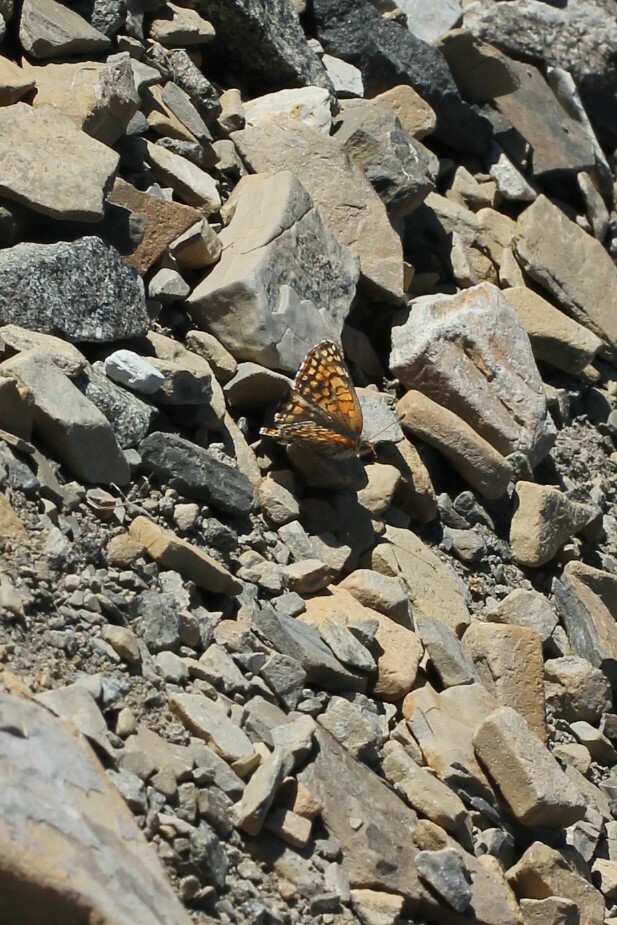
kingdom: Animalia
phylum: Arthropoda
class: Insecta
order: Lepidoptera
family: Nymphalidae
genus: Chlosyne
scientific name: Chlosyne damoetas
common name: Rockslide checkerspot
